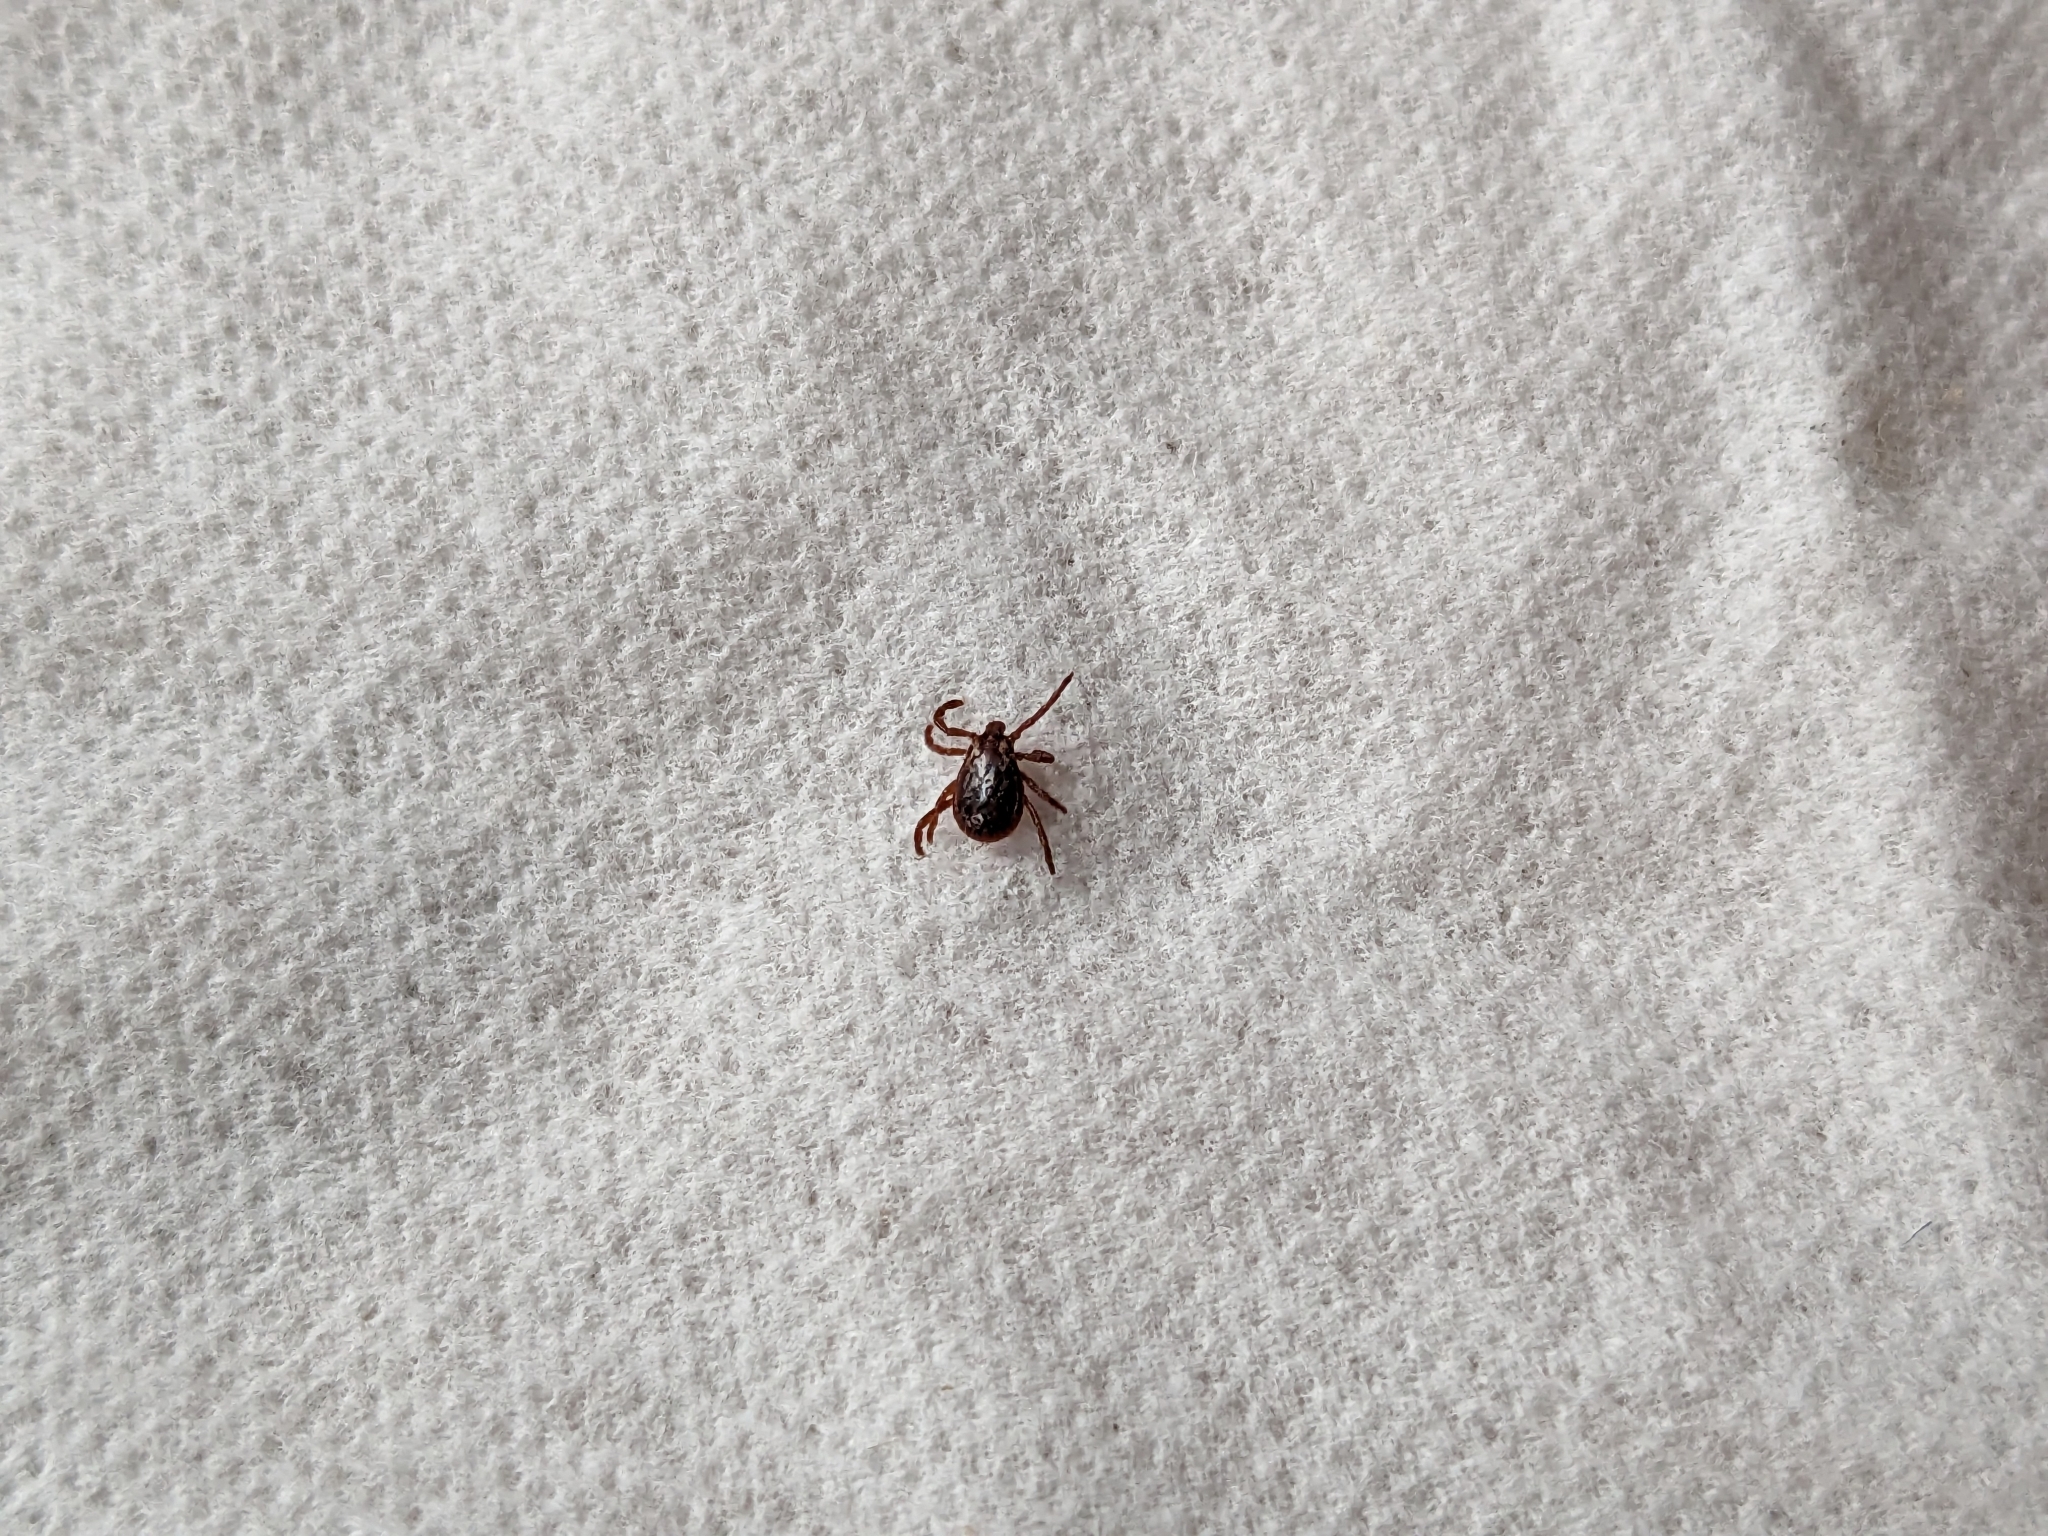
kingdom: Animalia
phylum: Arthropoda
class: Arachnida
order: Ixodida
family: Ixodidae
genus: Dermacentor
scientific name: Dermacentor variabilis
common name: American dog tick
